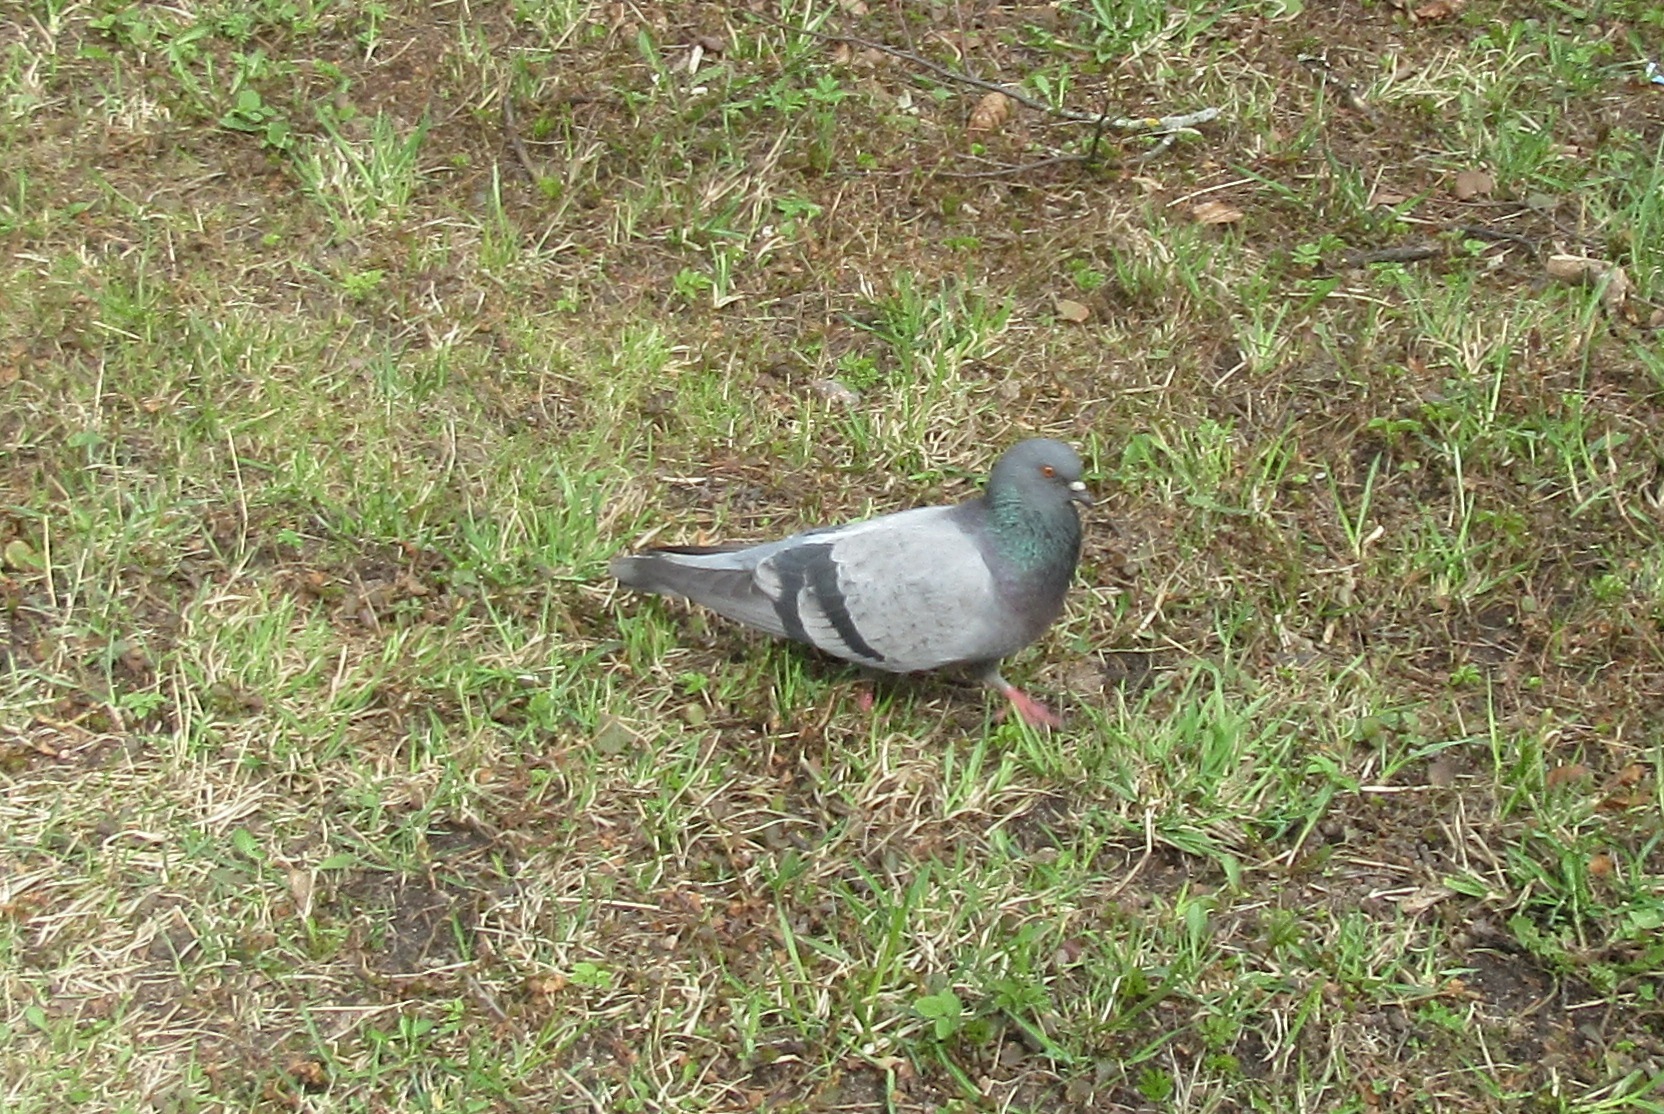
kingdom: Animalia
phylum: Chordata
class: Aves
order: Columbiformes
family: Columbidae
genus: Columba
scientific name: Columba livia
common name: Rock pigeon
